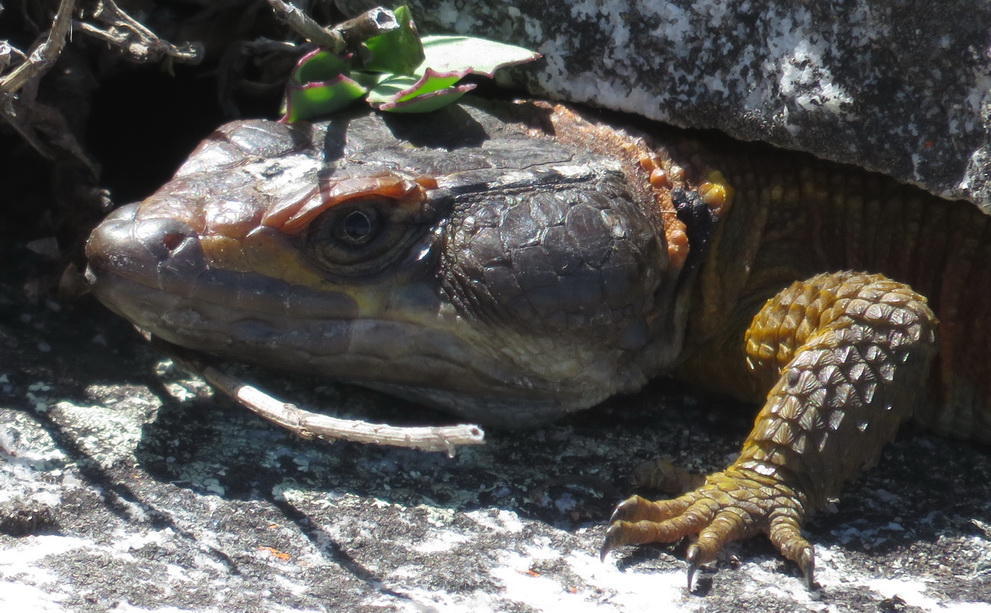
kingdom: Animalia
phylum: Chordata
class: Squamata
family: Cordylidae
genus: Pseudocordylus
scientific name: Pseudocordylus microlepidotus
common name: Cape crag lizard
